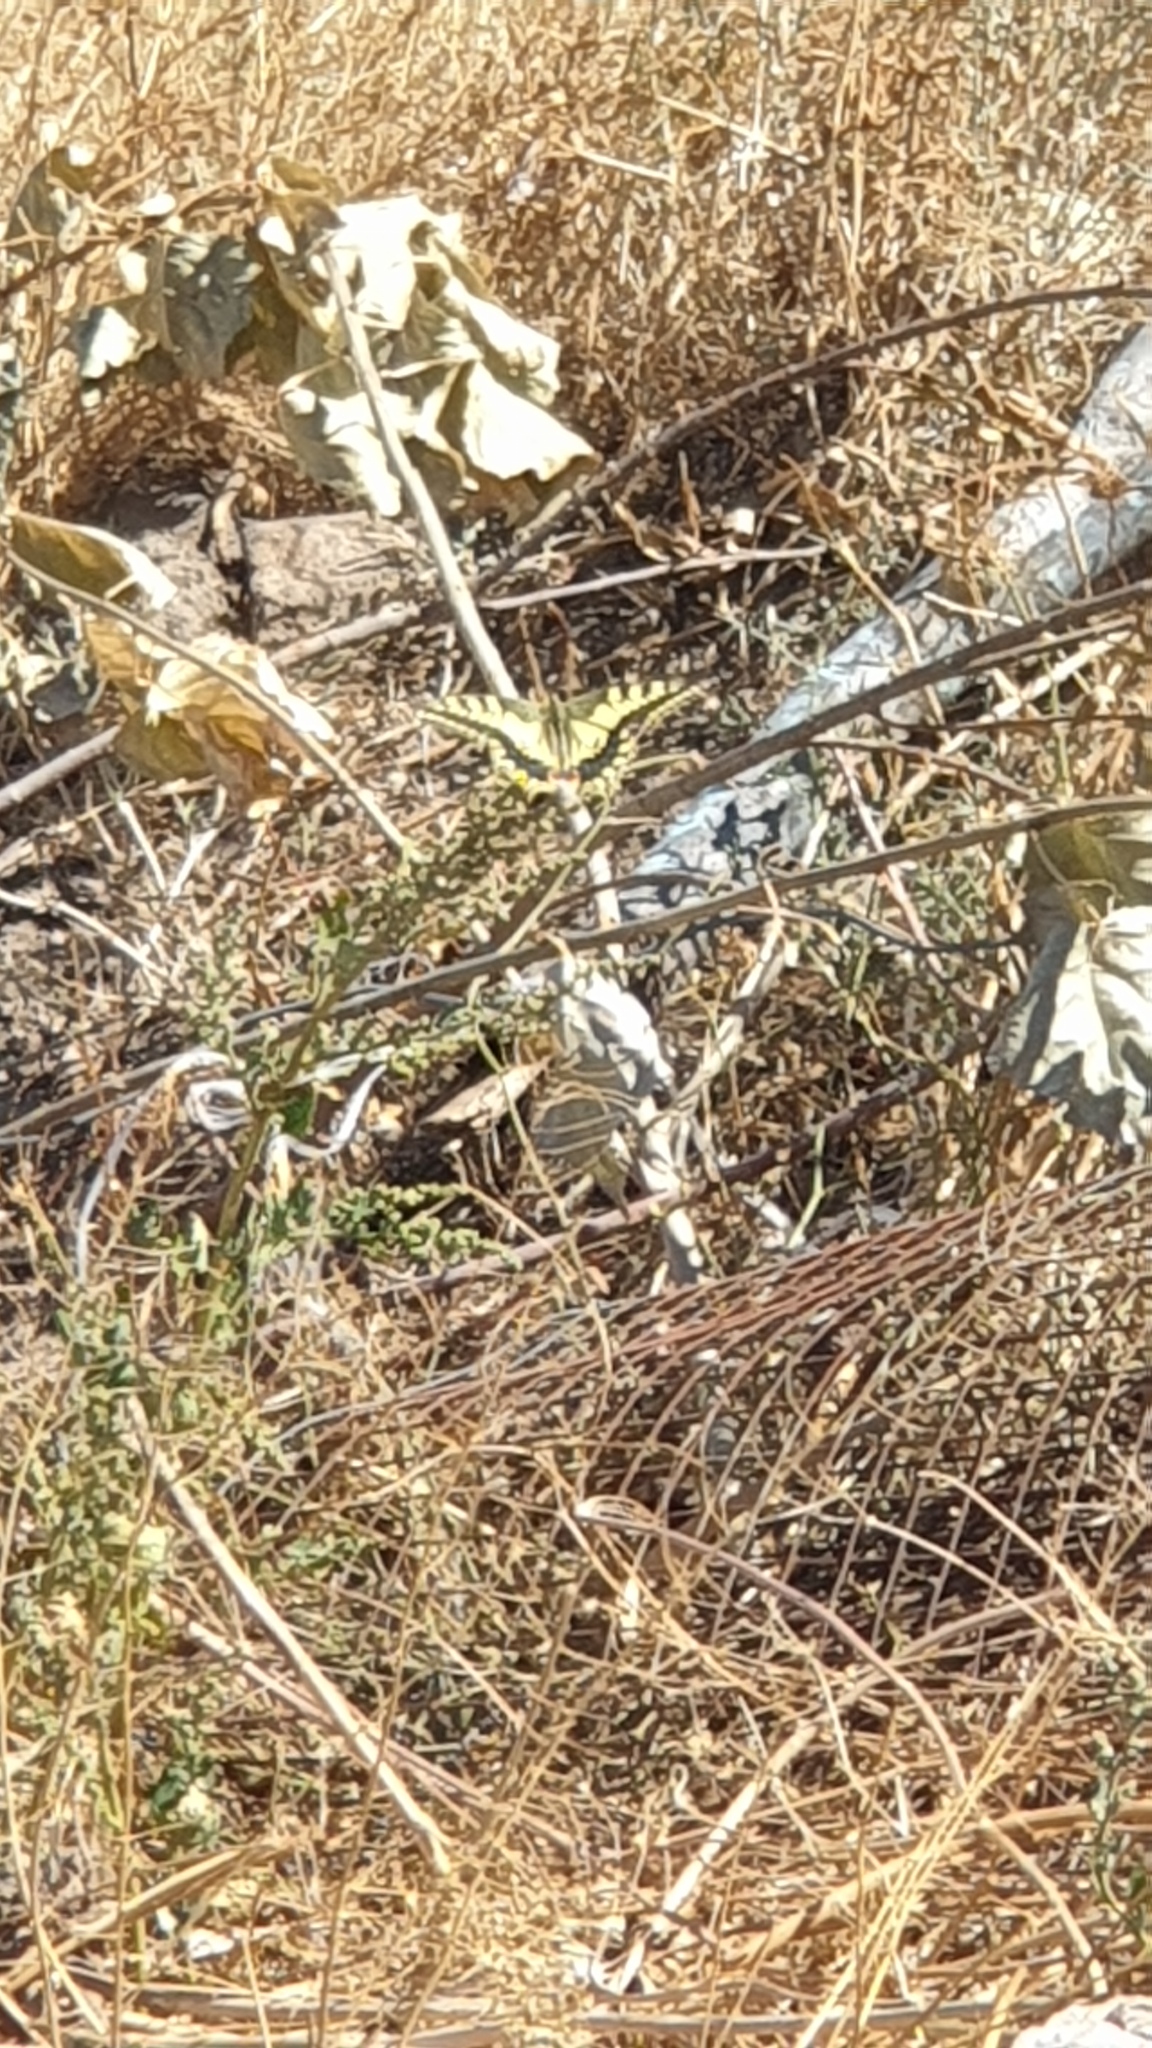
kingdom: Animalia
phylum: Arthropoda
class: Insecta
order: Lepidoptera
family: Papilionidae
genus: Papilio
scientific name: Papilio machaon
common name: Swallowtail
